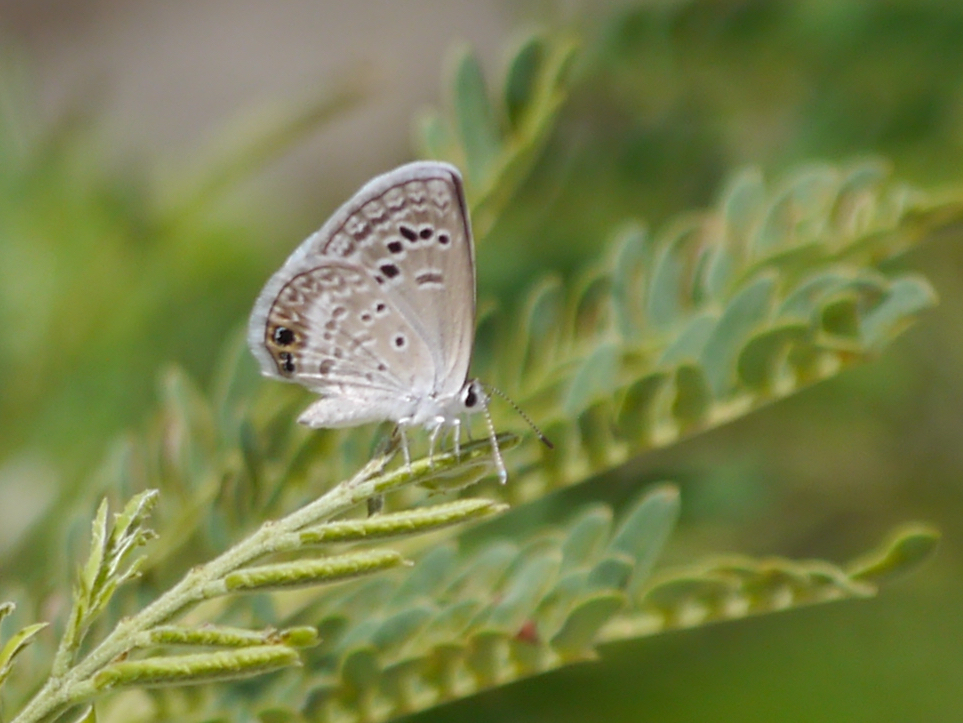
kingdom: Animalia
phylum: Arthropoda
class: Insecta
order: Lepidoptera
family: Lycaenidae
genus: Echinargus
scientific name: Echinargus isola
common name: Reakirt's blue
